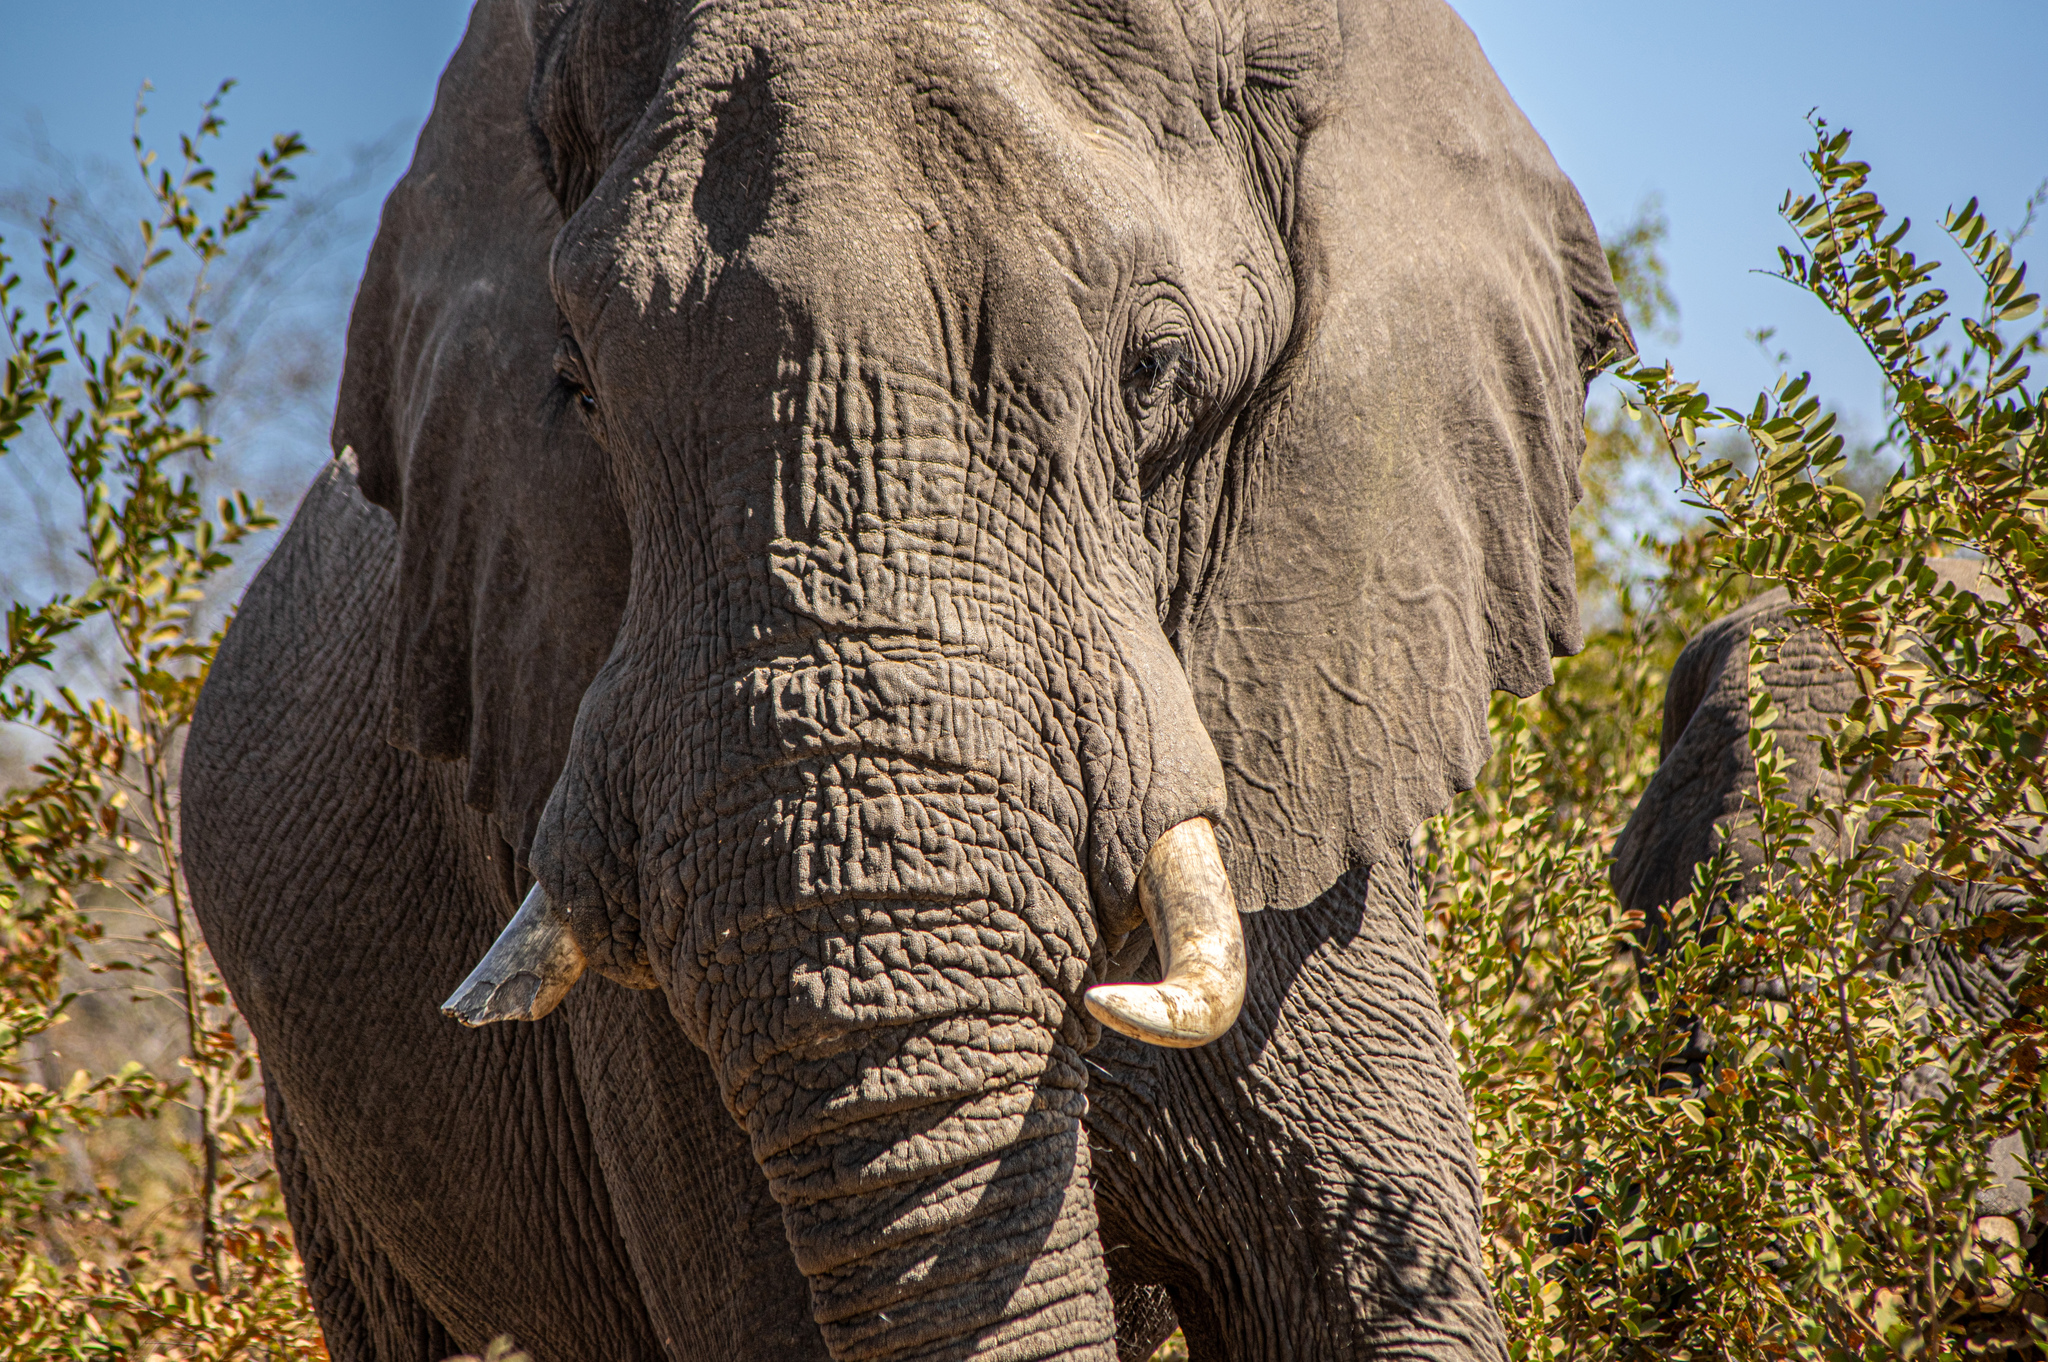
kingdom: Animalia
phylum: Chordata
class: Mammalia
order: Proboscidea
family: Elephantidae
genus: Loxodonta
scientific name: Loxodonta africana
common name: African elephant
